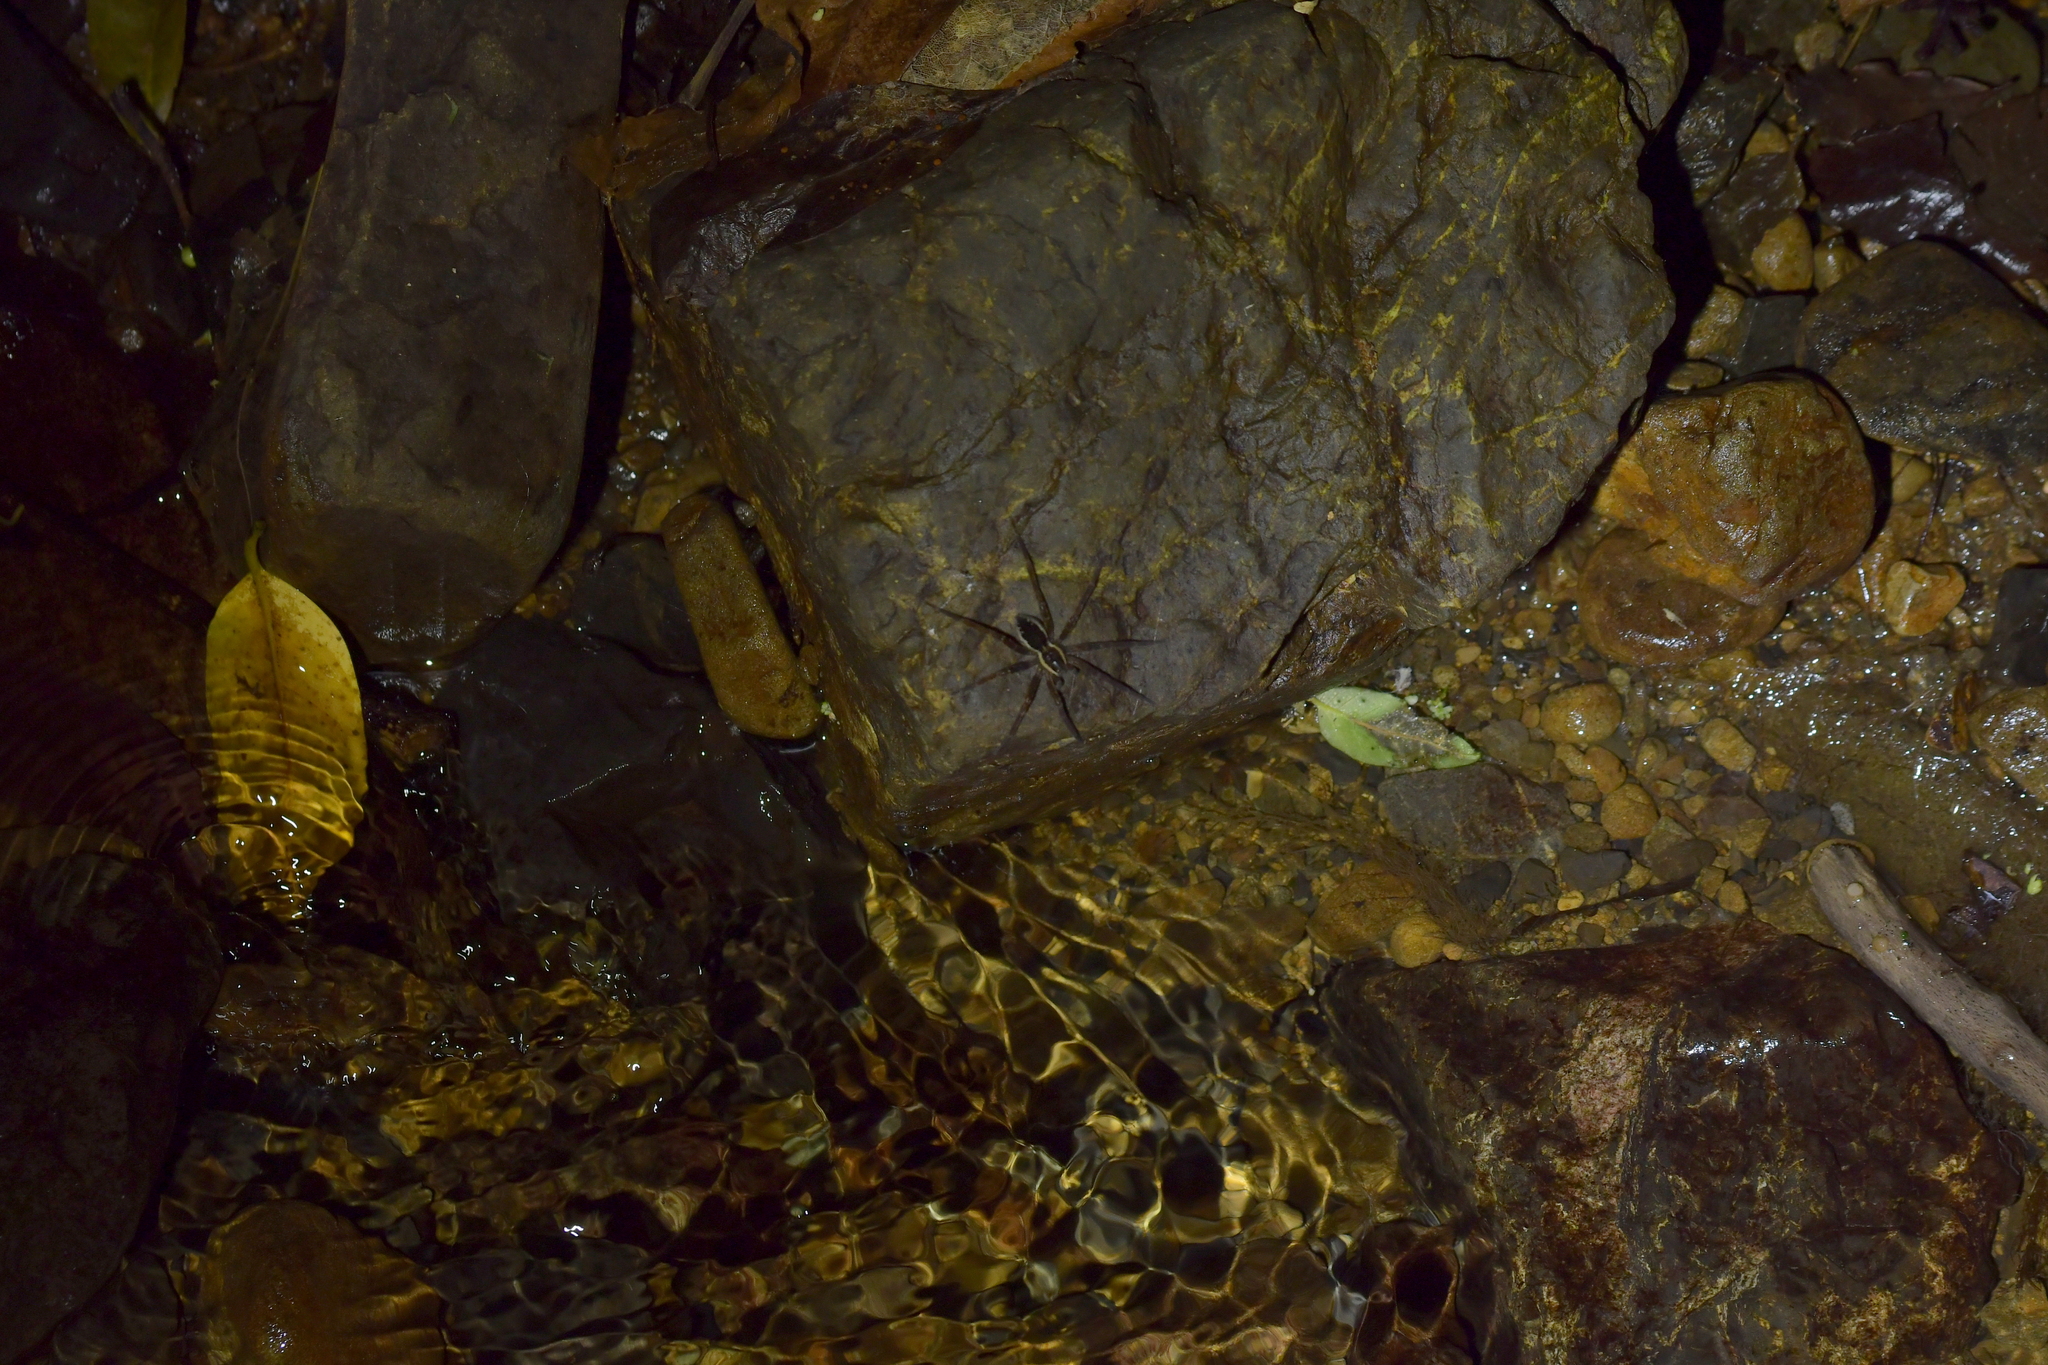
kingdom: Animalia
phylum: Arthropoda
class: Arachnida
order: Araneae
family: Pisauridae
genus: Dolomedes
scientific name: Dolomedes dondalei
